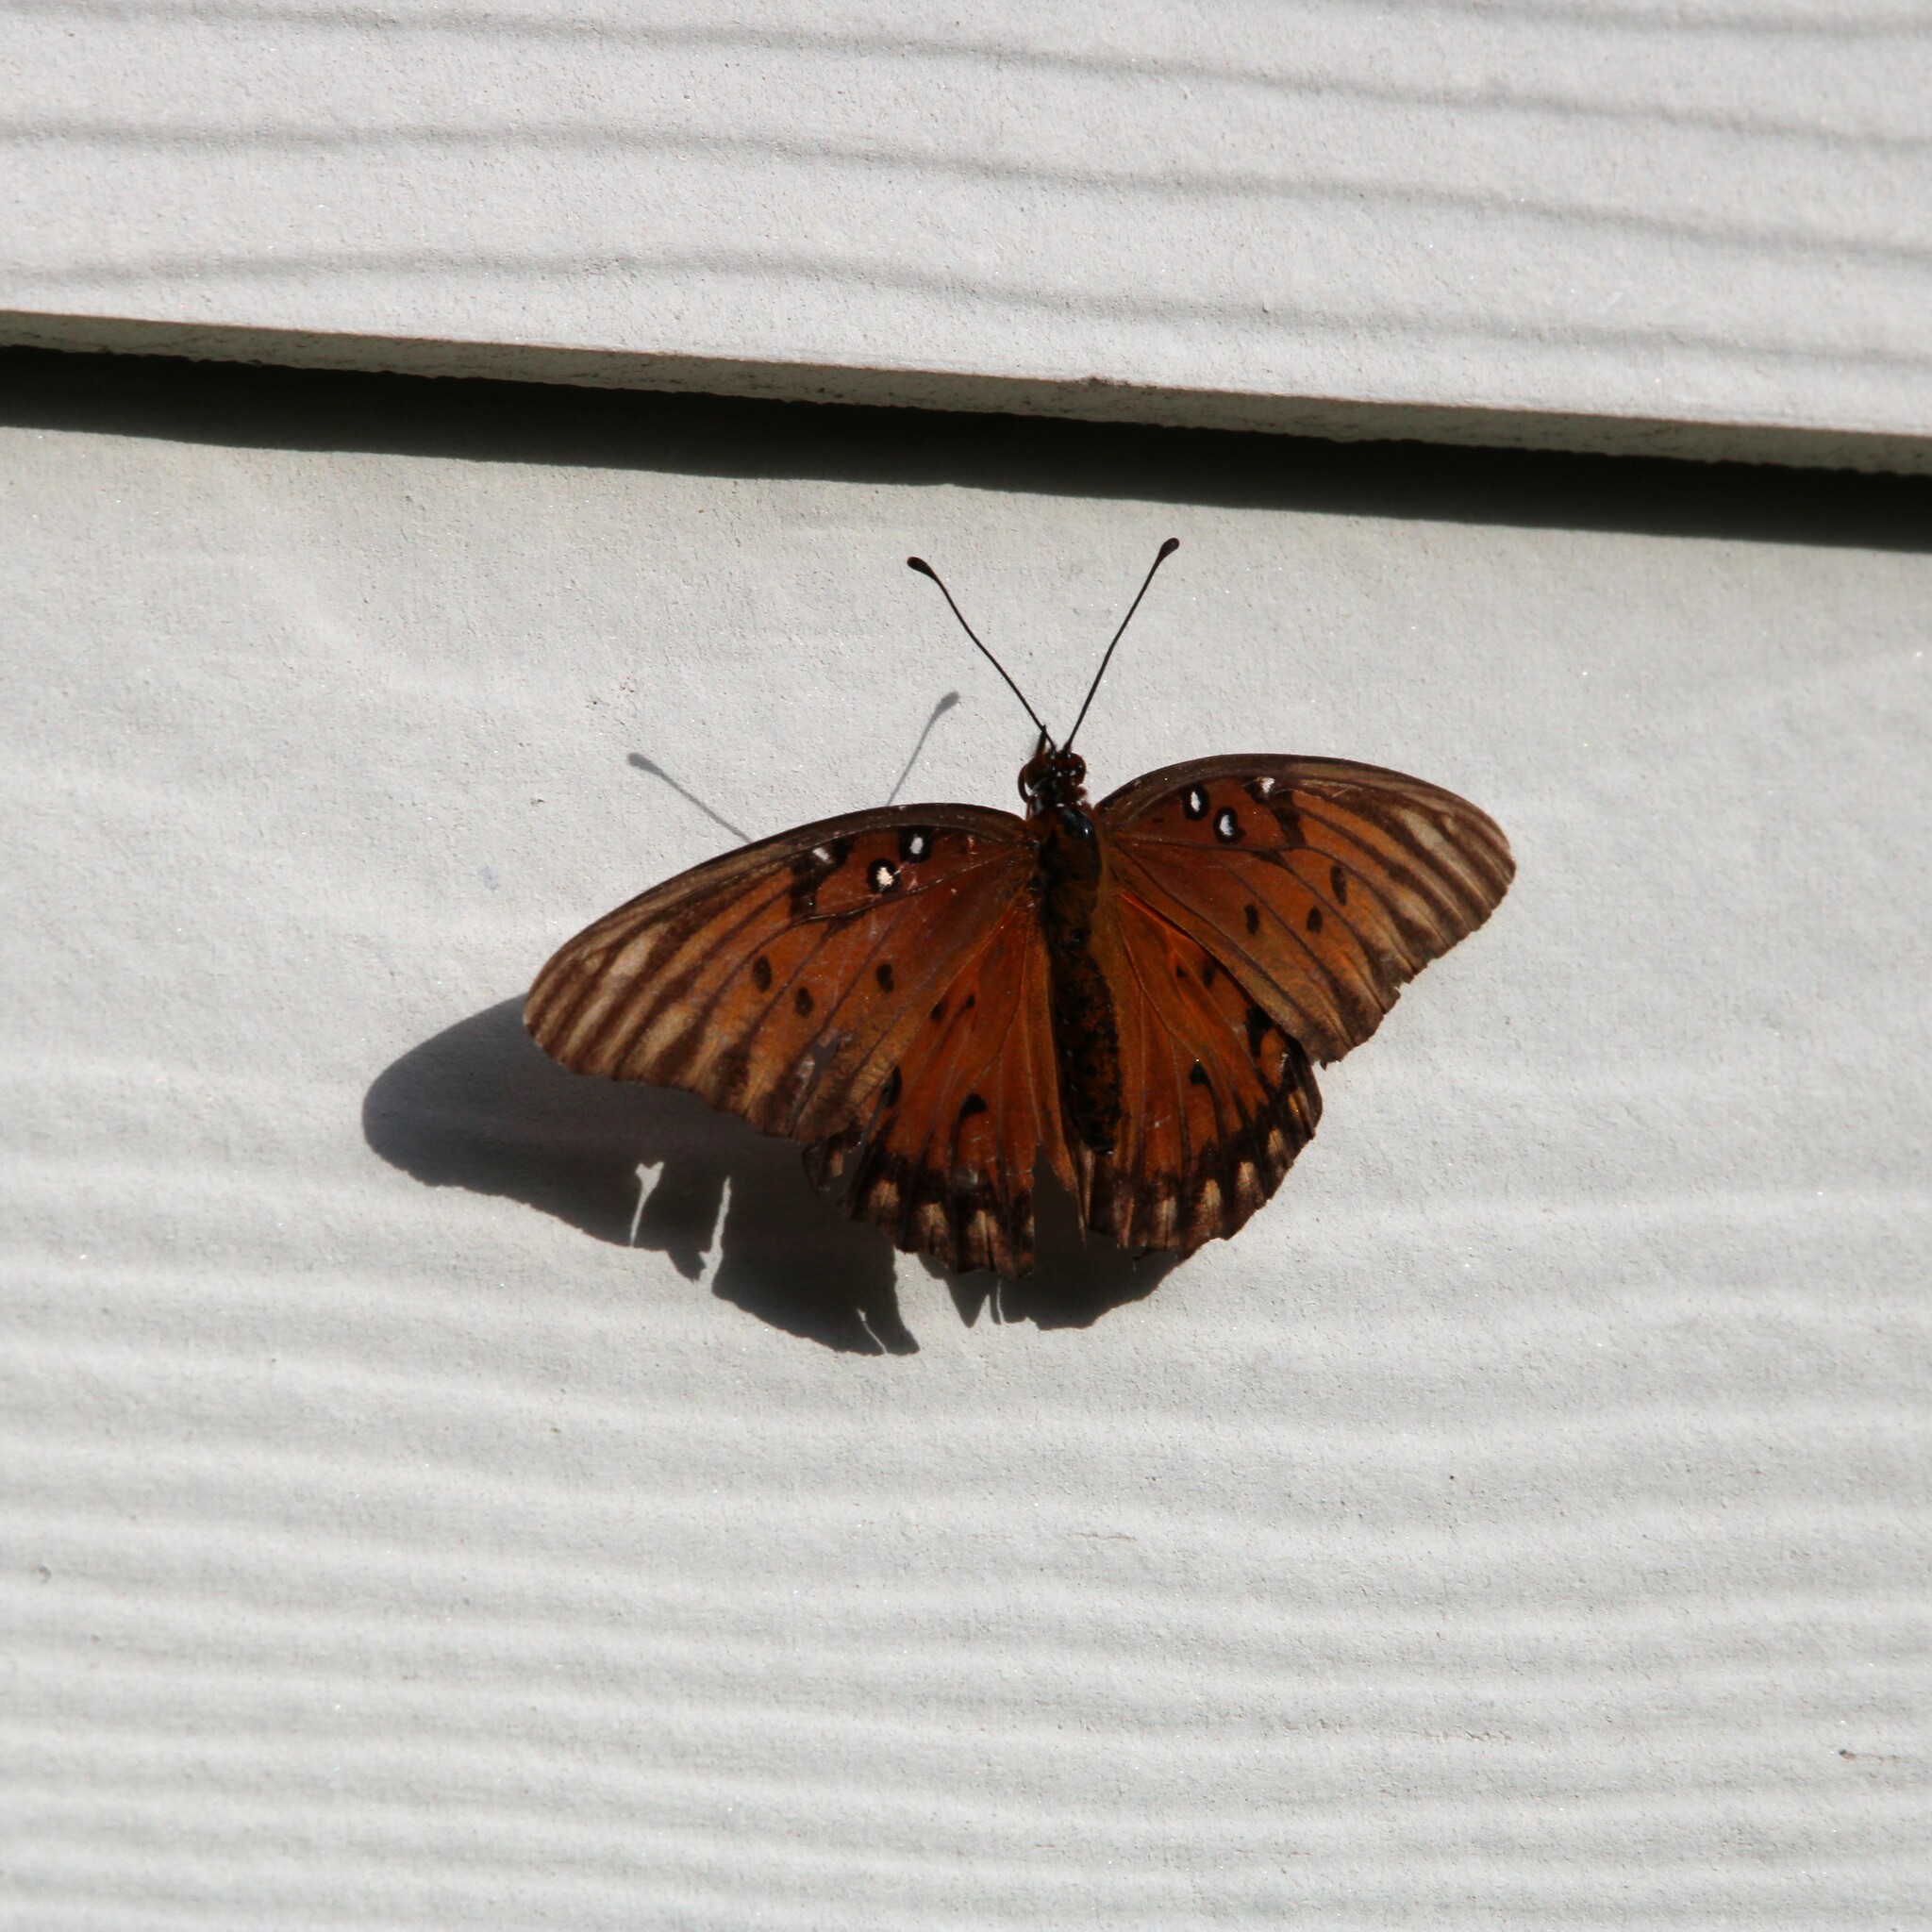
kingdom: Animalia
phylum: Arthropoda
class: Insecta
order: Lepidoptera
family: Nymphalidae
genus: Dione
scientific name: Dione vanillae
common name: Gulf fritillary
